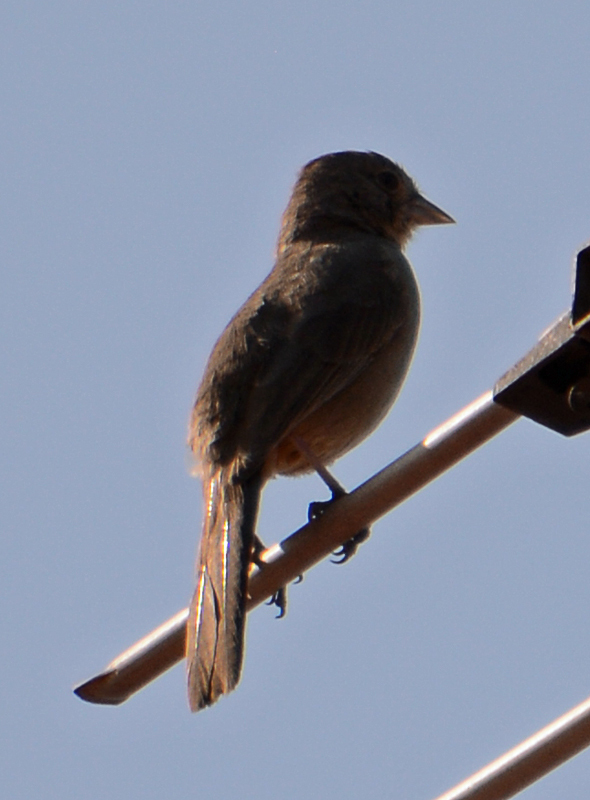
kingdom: Animalia
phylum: Chordata
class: Aves
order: Passeriformes
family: Passerellidae
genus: Melozone
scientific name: Melozone fusca
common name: Canyon towhee
